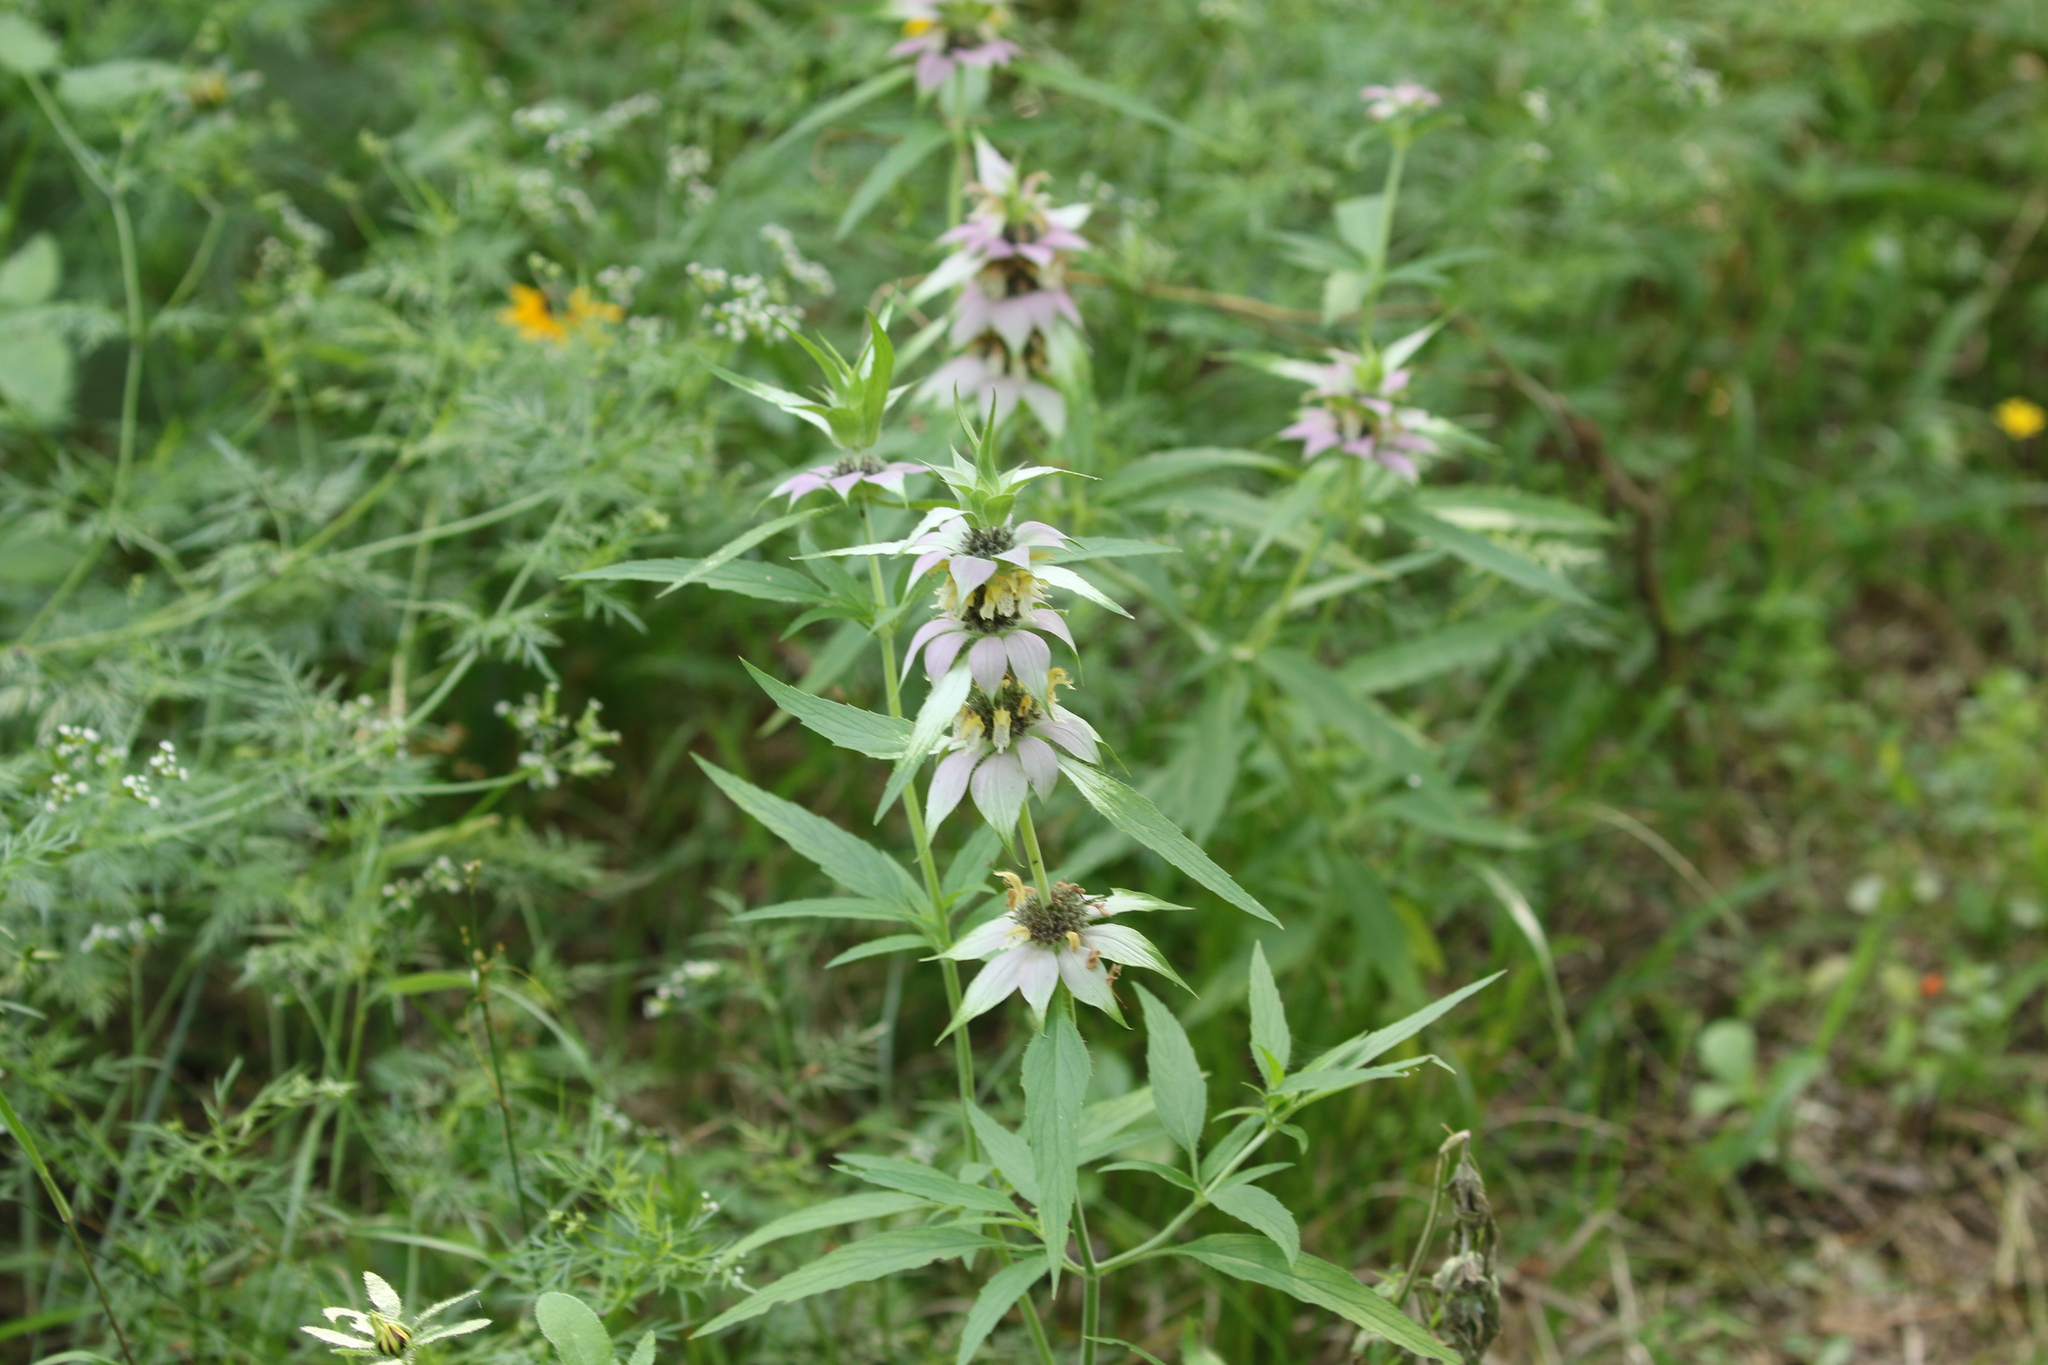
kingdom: Plantae
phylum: Tracheophyta
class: Magnoliopsida
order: Lamiales
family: Lamiaceae
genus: Monarda
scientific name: Monarda punctata
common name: Dotted monarda
